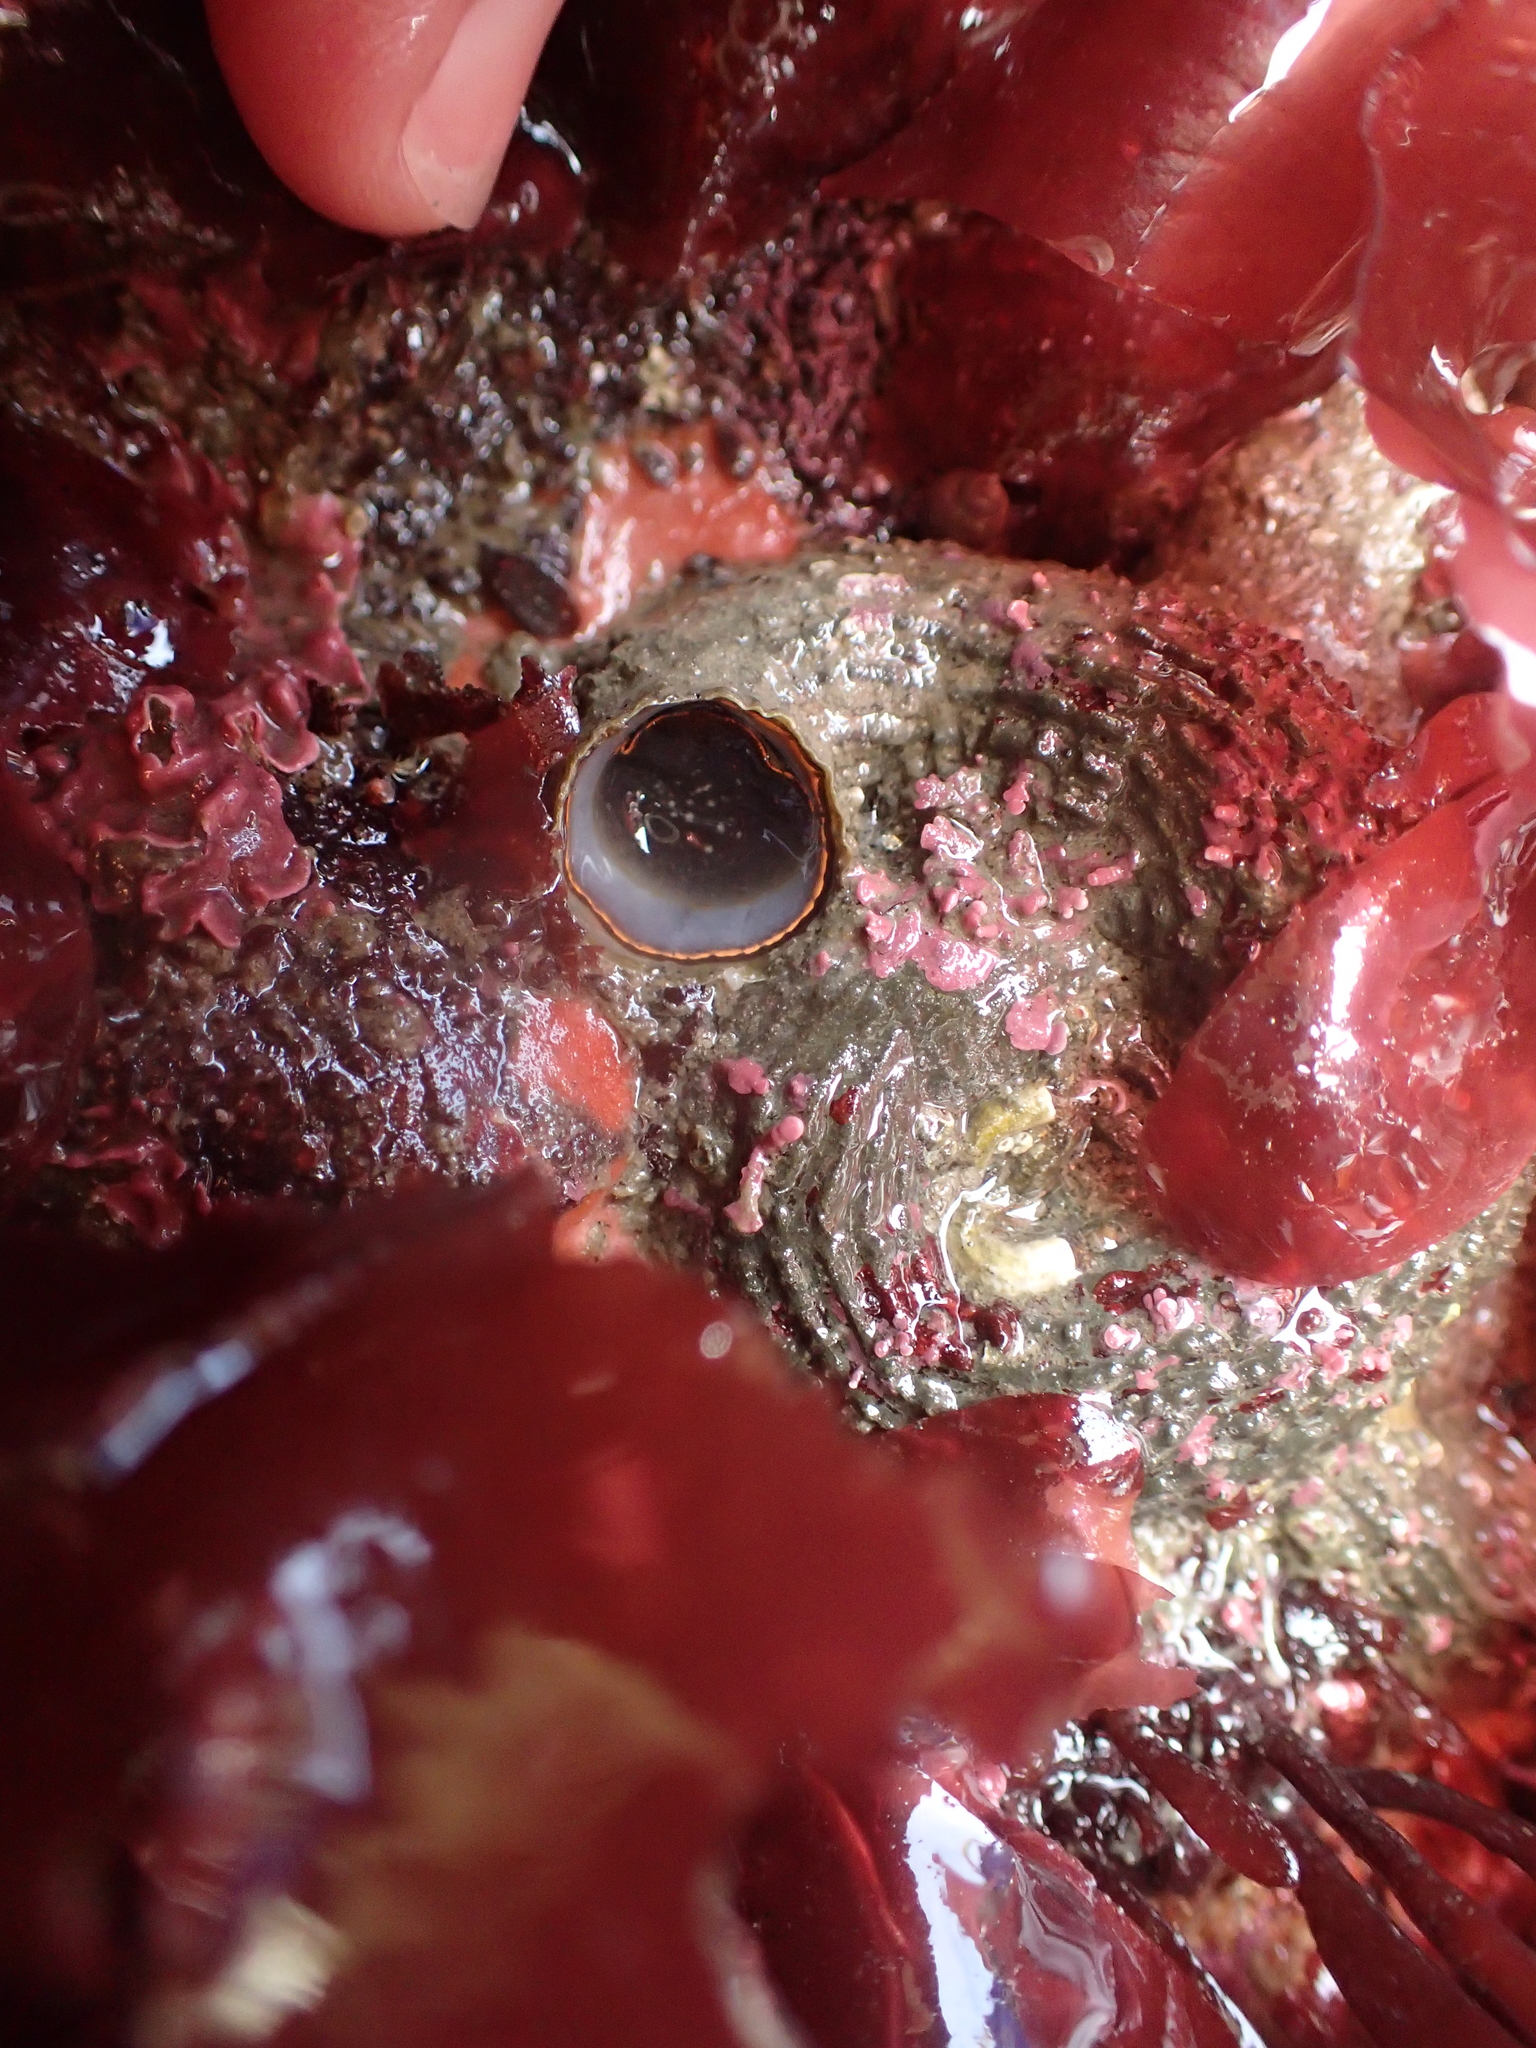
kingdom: Animalia
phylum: Mollusca
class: Gastropoda
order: Littorinimorpha
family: Vermetidae
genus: Thylacodes
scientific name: Thylacodes squamigerus
